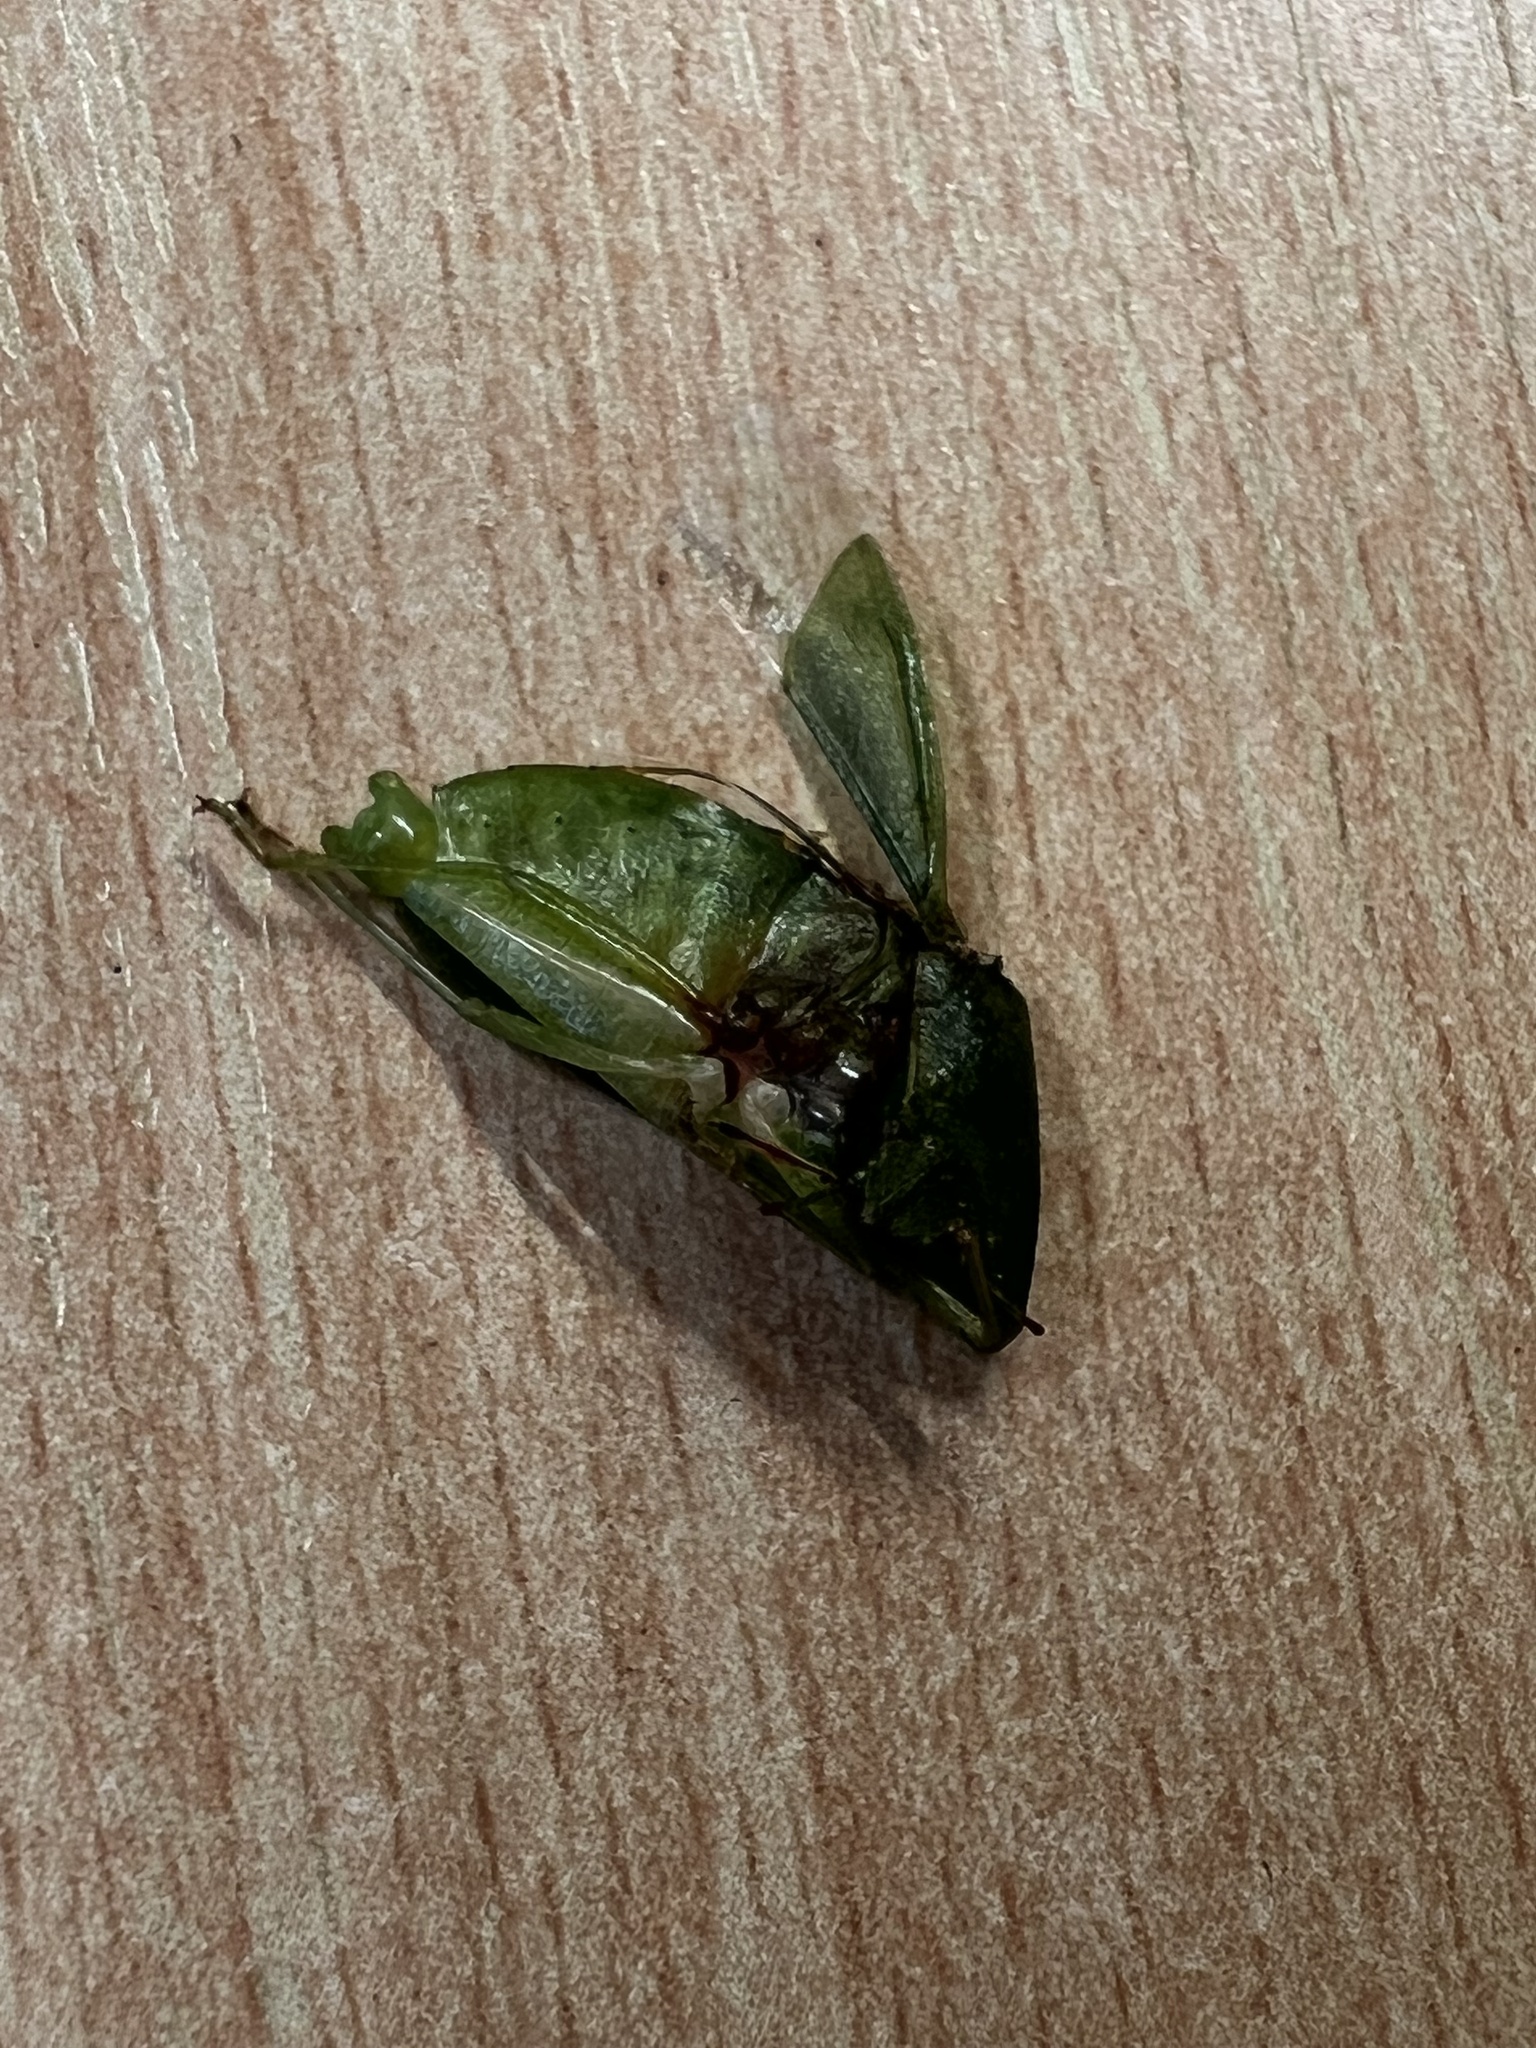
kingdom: Animalia
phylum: Arthropoda
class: Insecta
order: Hemiptera
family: Pentatomidae
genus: Nezara
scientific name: Nezara viridula
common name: Southern green stink bug
